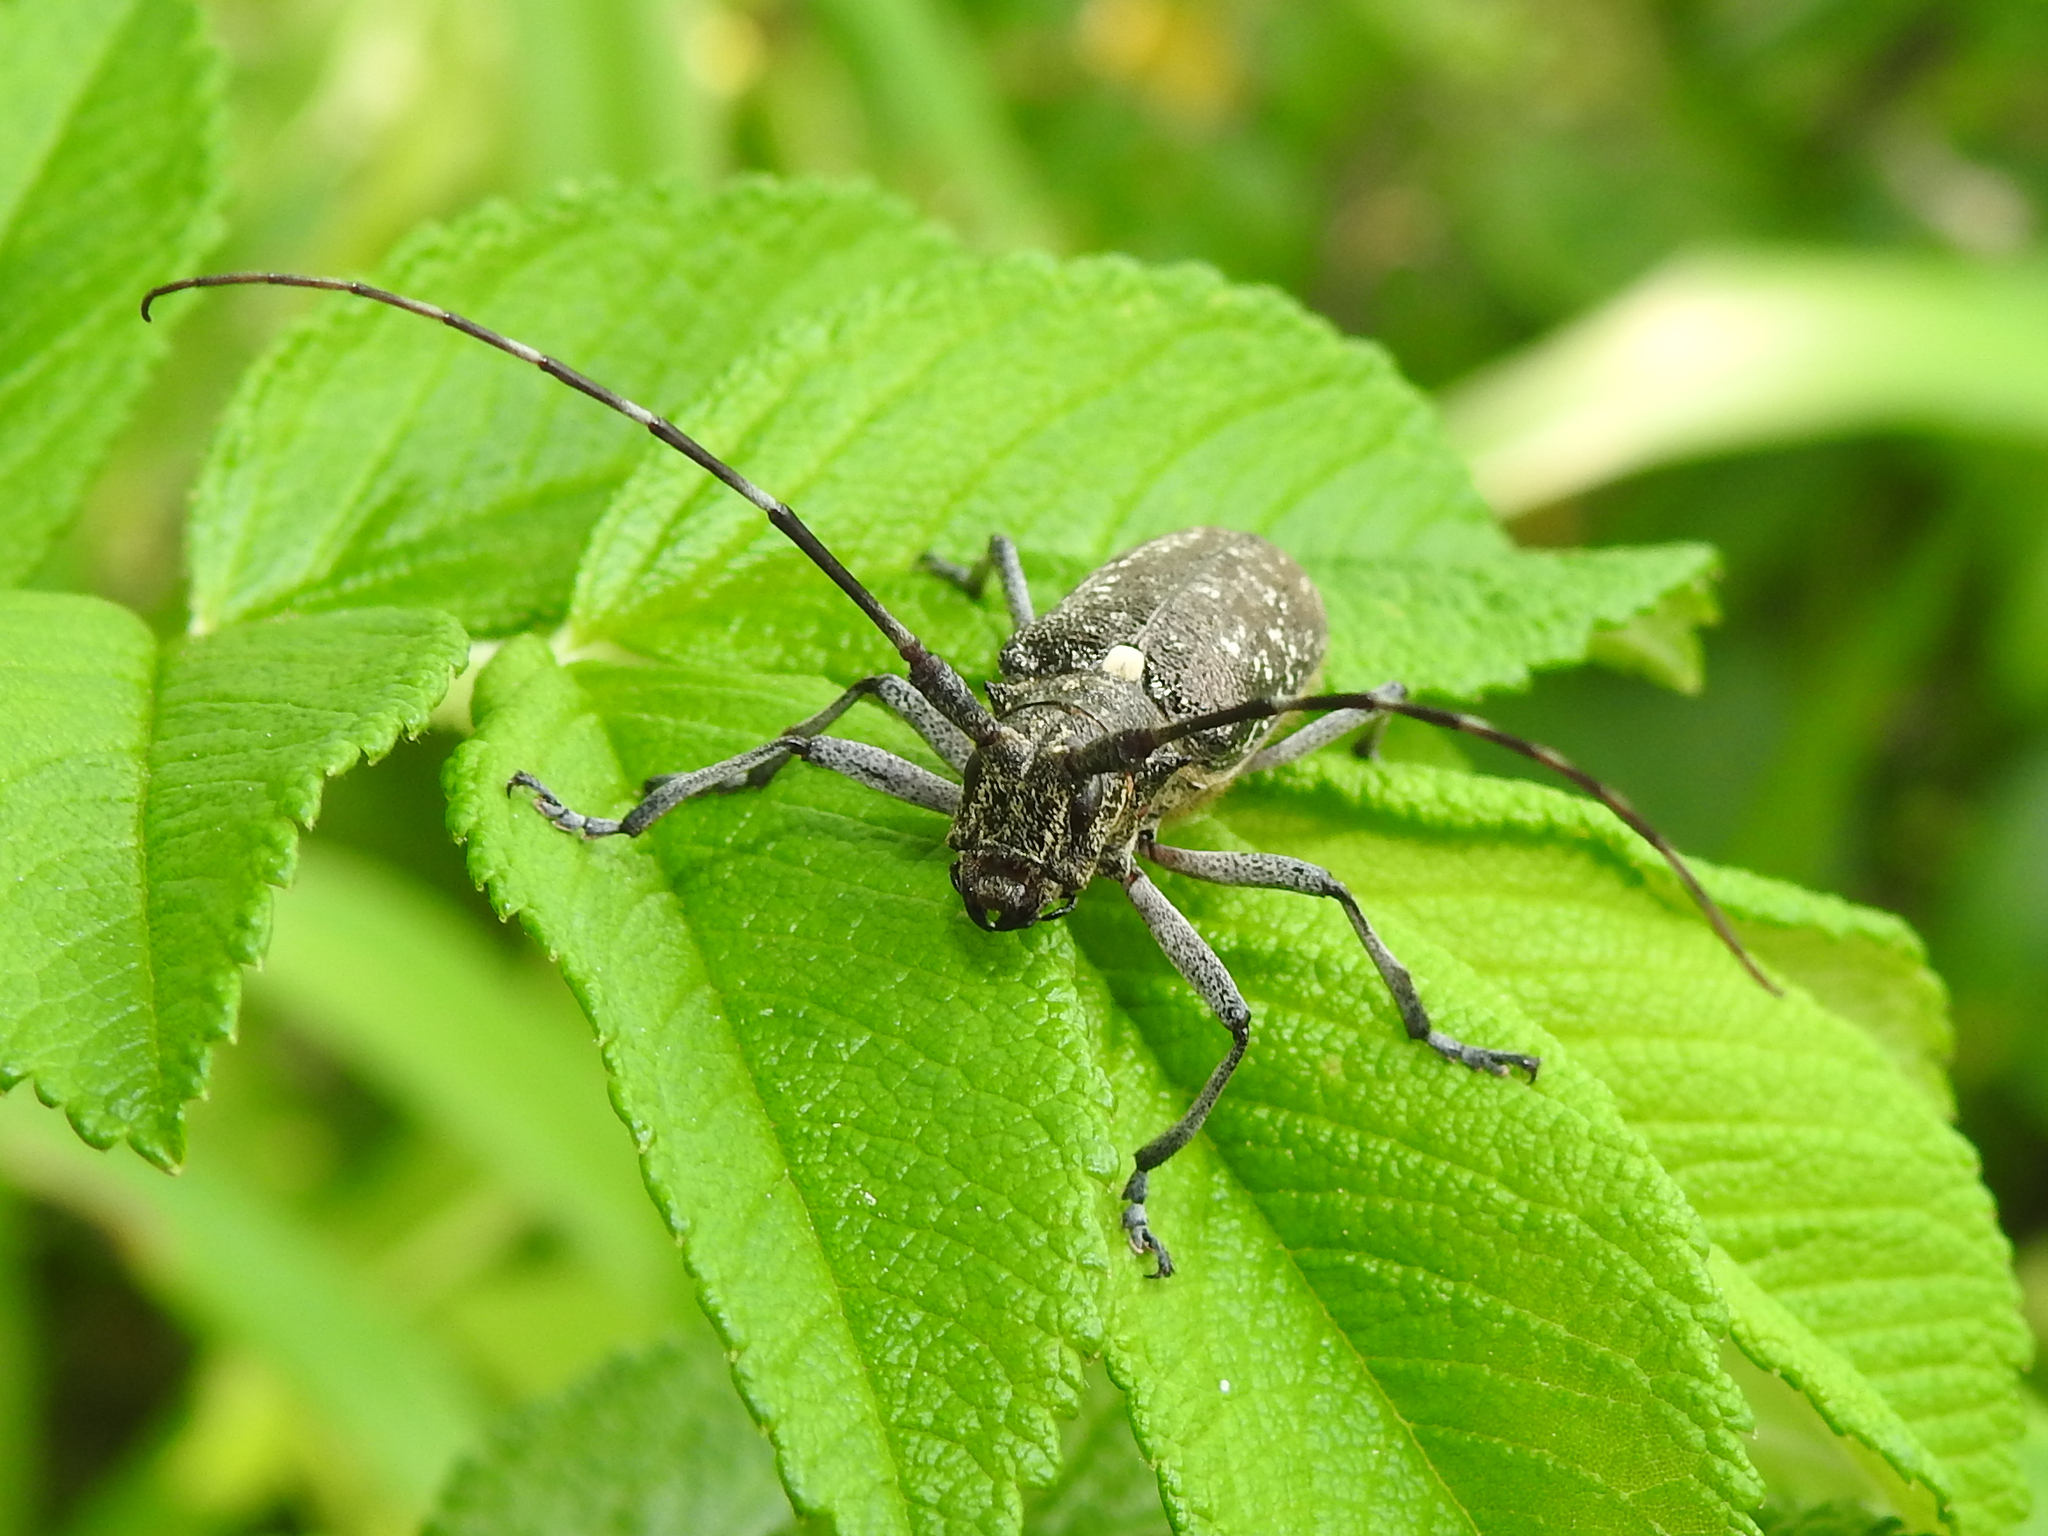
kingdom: Animalia
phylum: Arthropoda
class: Insecta
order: Coleoptera
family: Cerambycidae
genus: Monochamus
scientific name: Monochamus scutellatus
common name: White-spotted sawyer beetle
